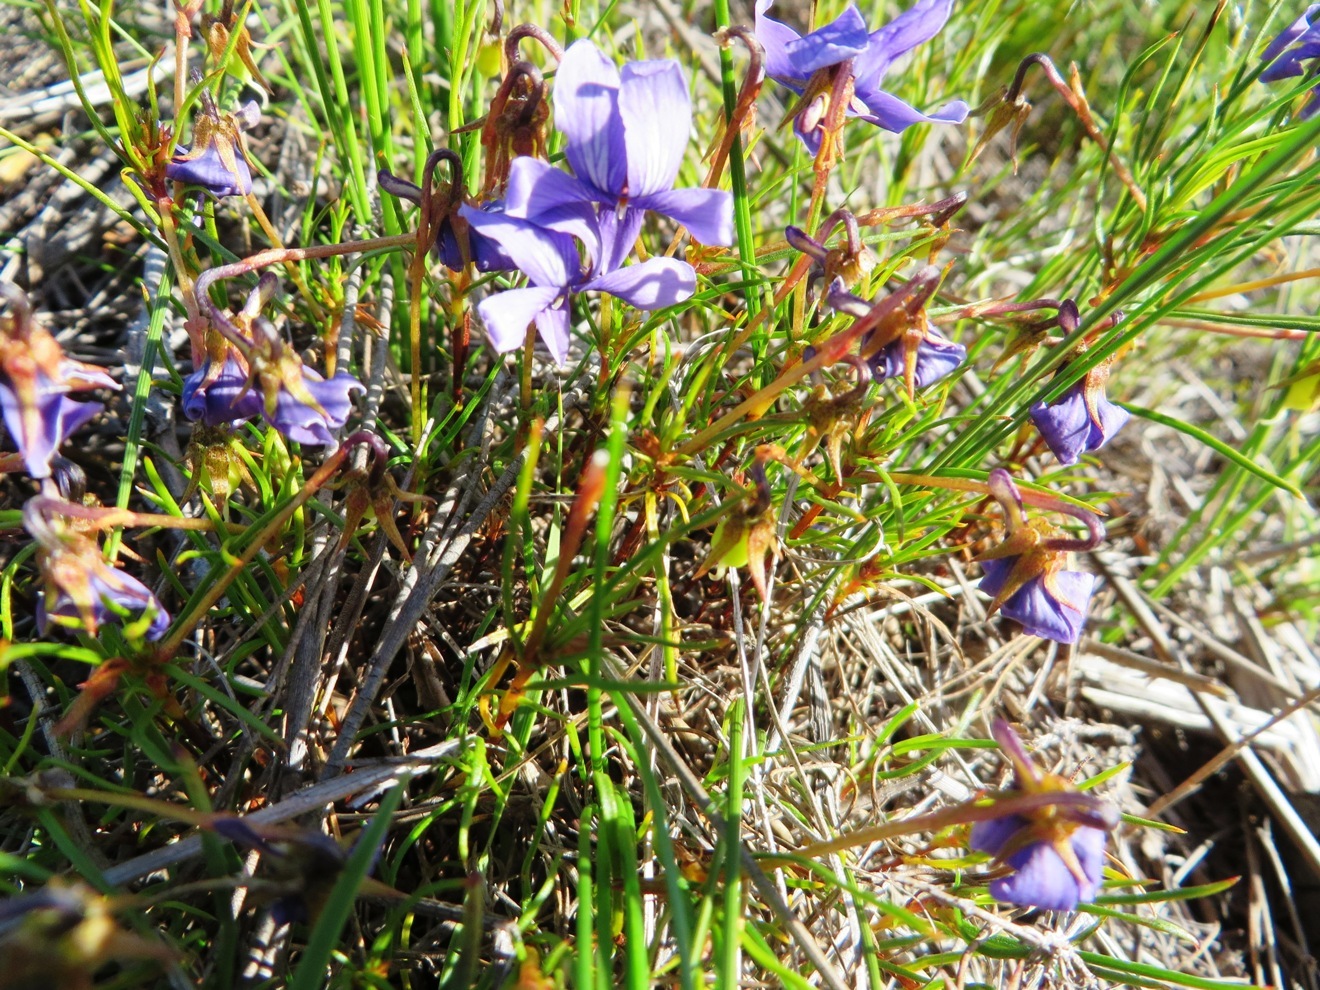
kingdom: Plantae
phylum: Tracheophyta
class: Magnoliopsida
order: Malpighiales
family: Violaceae
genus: Viola
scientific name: Viola decumbens
